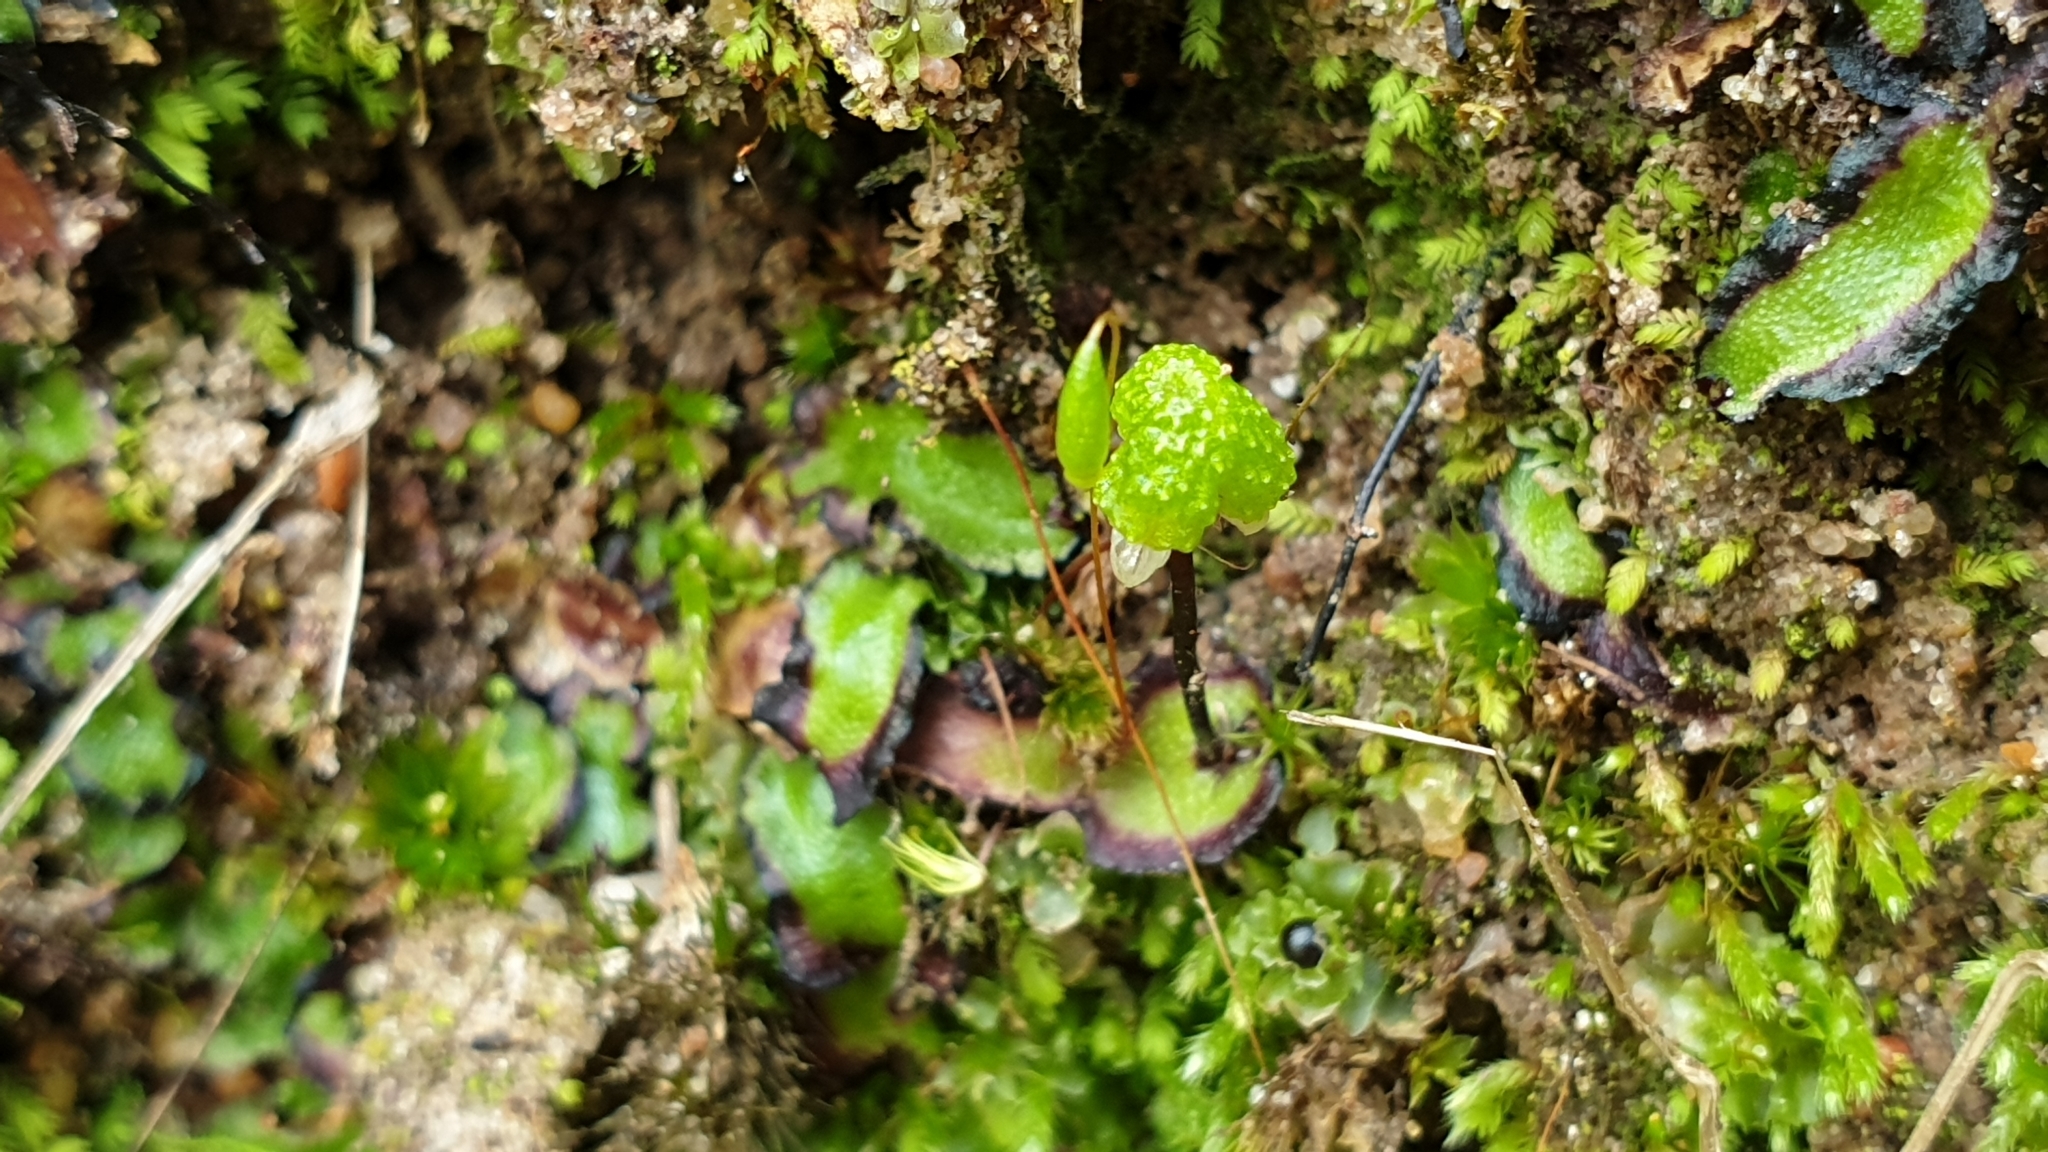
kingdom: Plantae
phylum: Marchantiophyta
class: Marchantiopsida
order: Marchantiales
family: Aytoniaceae
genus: Asterella
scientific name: Asterella drummondii
